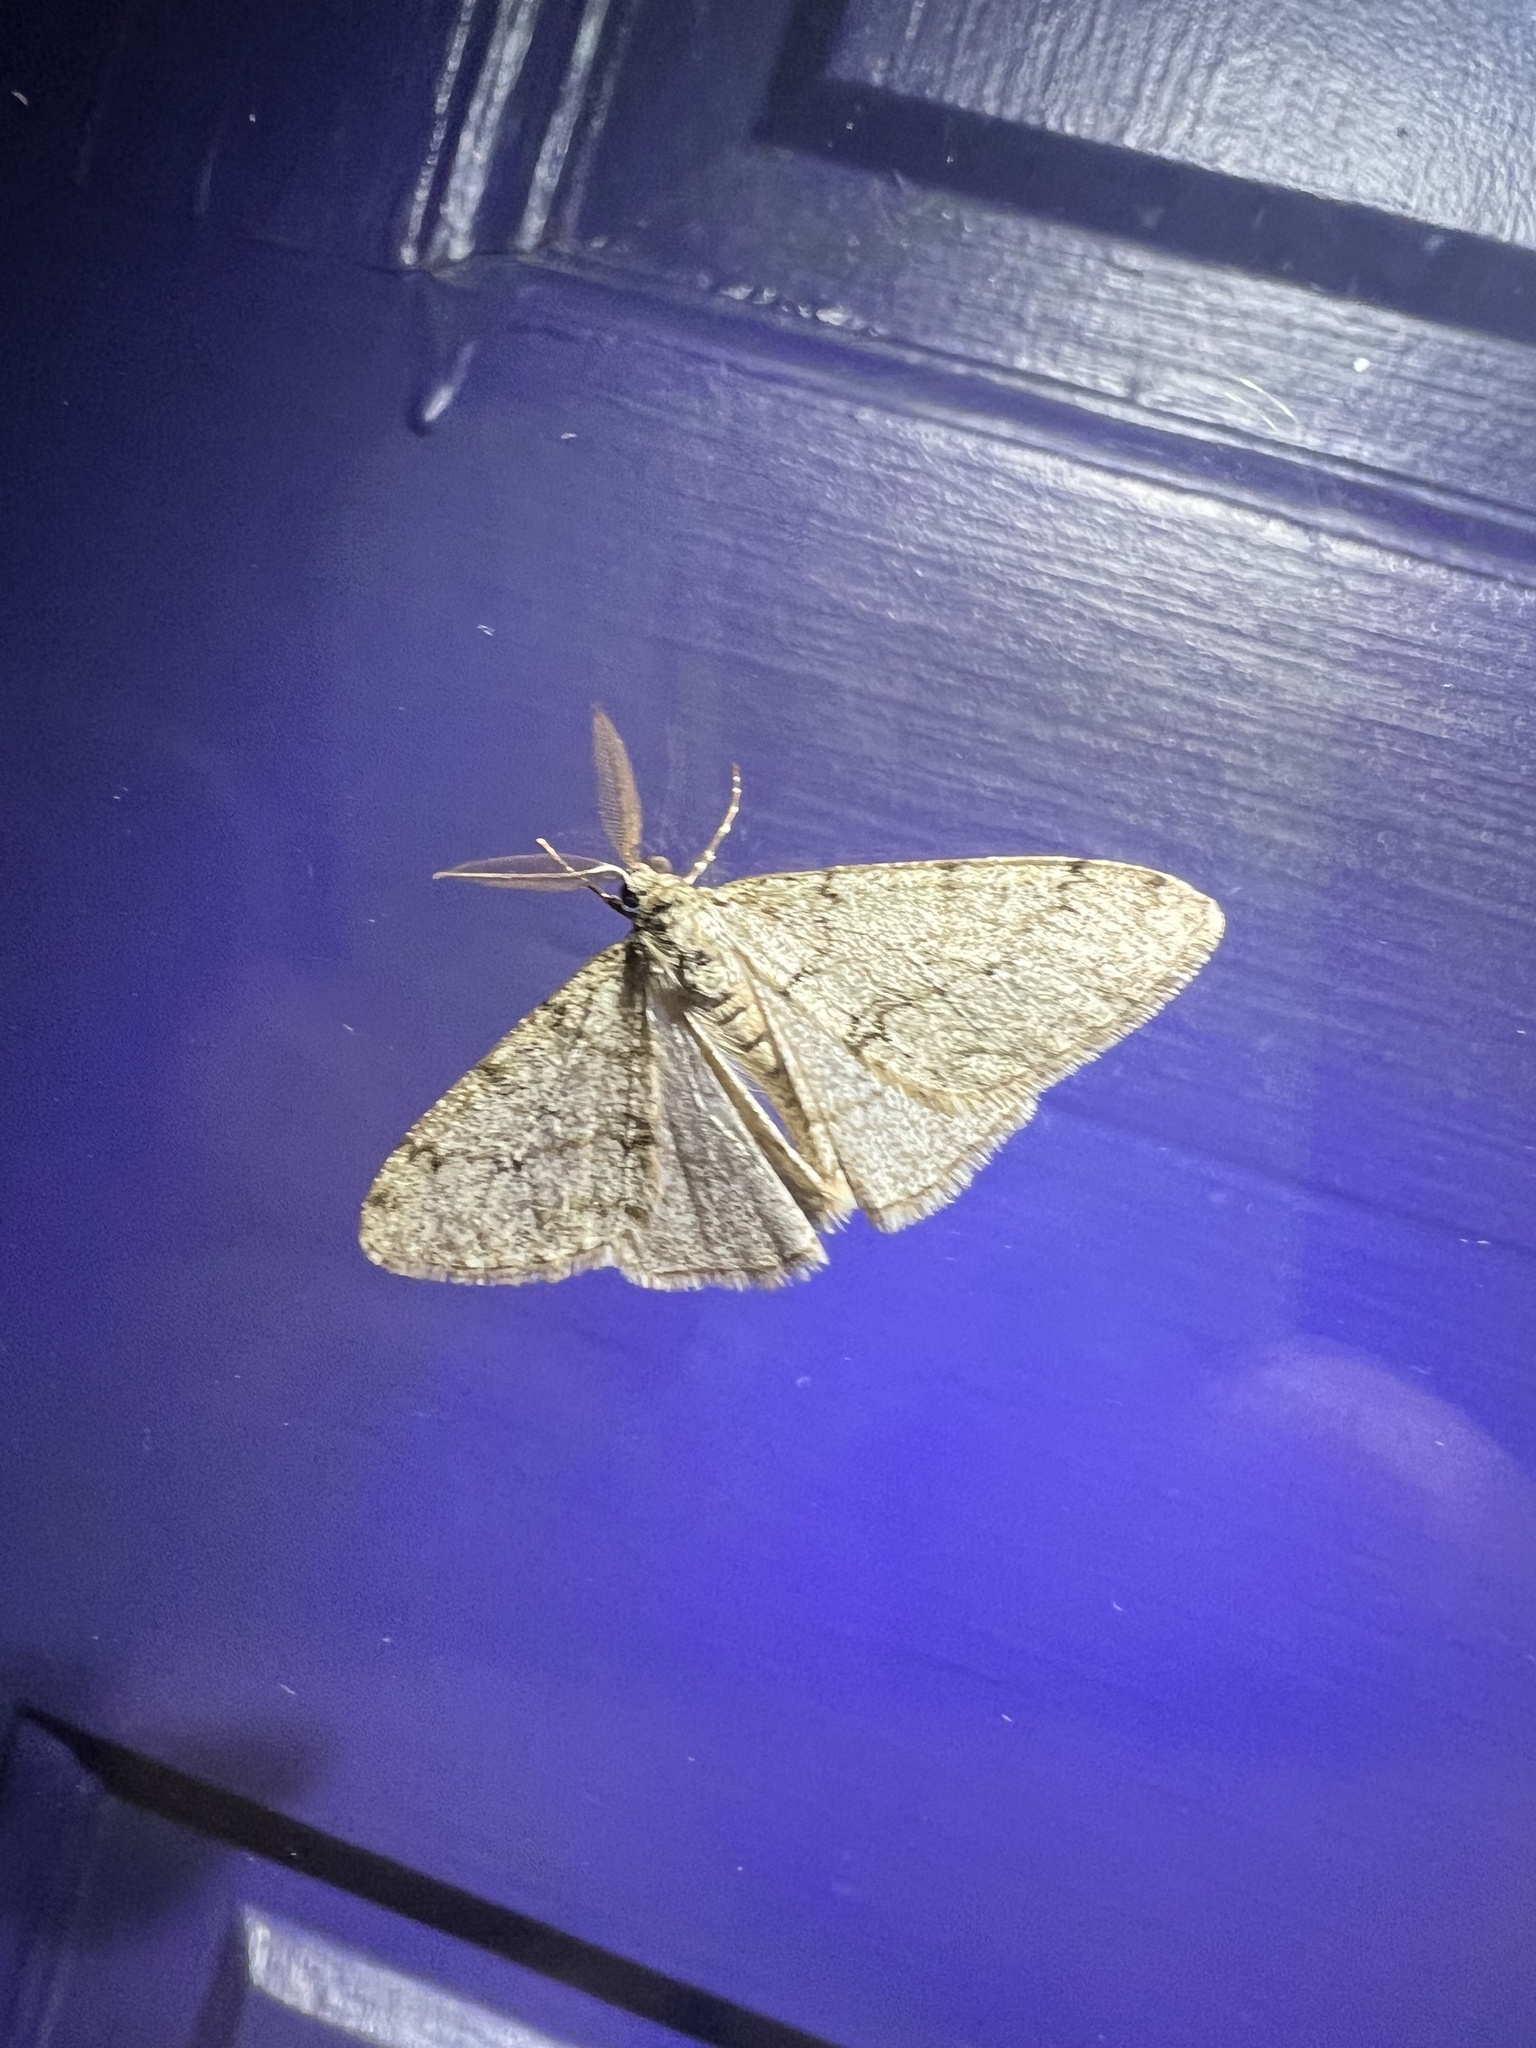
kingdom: Animalia
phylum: Arthropoda
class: Insecta
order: Lepidoptera
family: Geometridae
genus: Phigalia
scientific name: Phigalia strigataria
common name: Small phigalia
